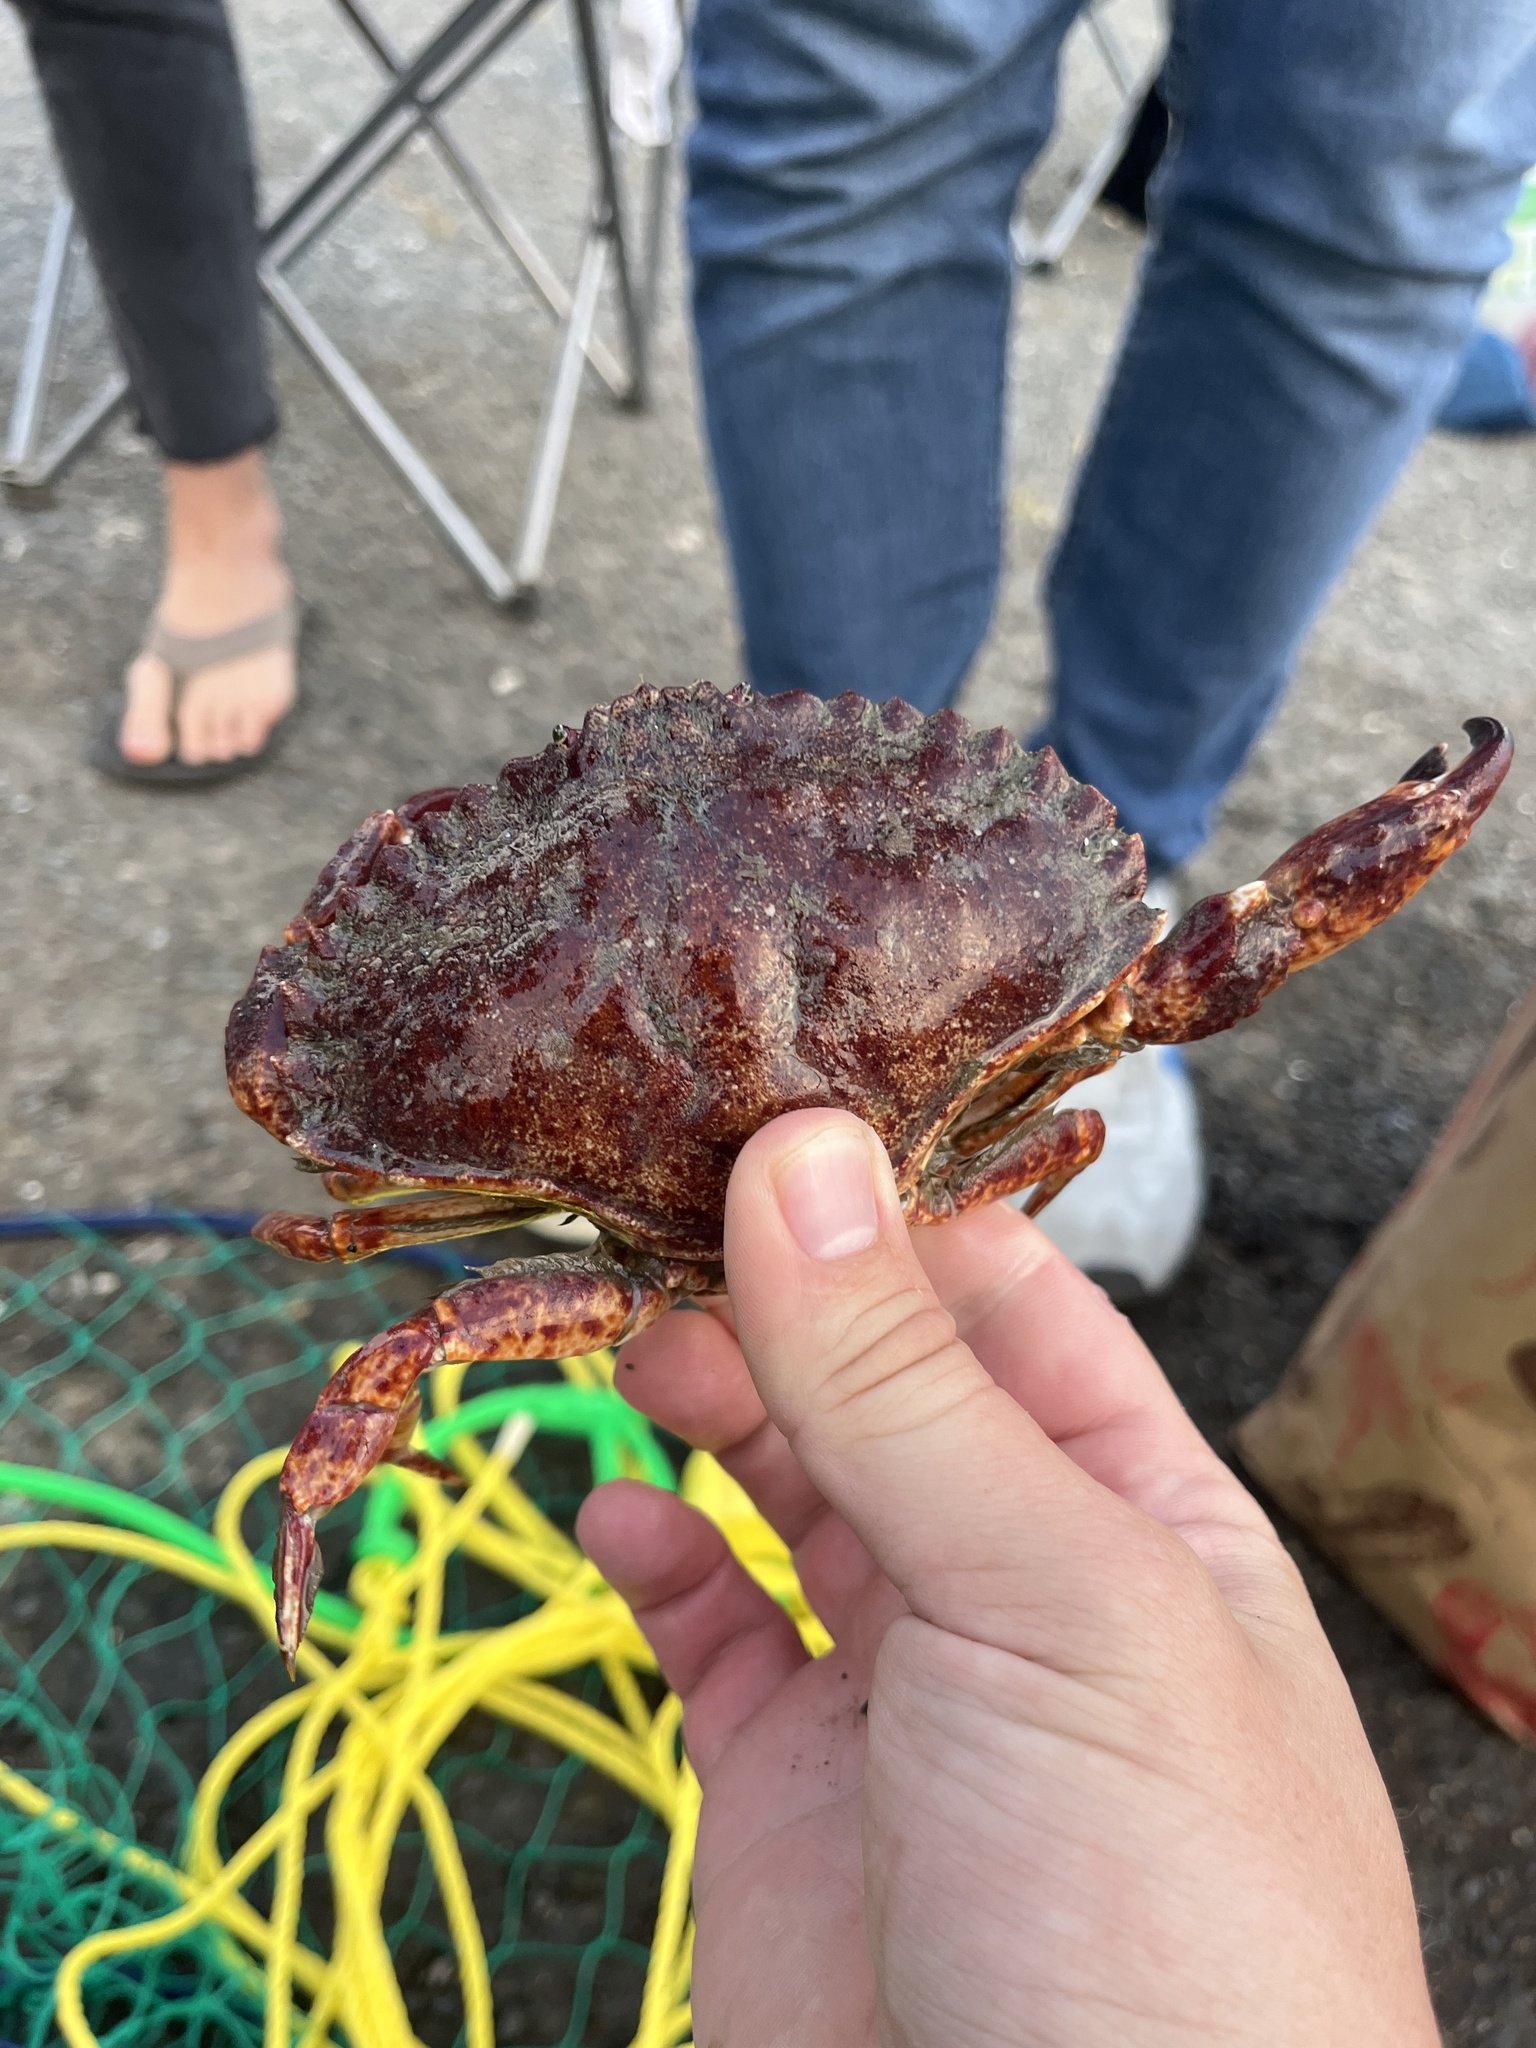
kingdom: Animalia
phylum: Arthropoda
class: Malacostraca
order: Decapoda
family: Cancridae
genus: Cancer
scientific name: Cancer productus
